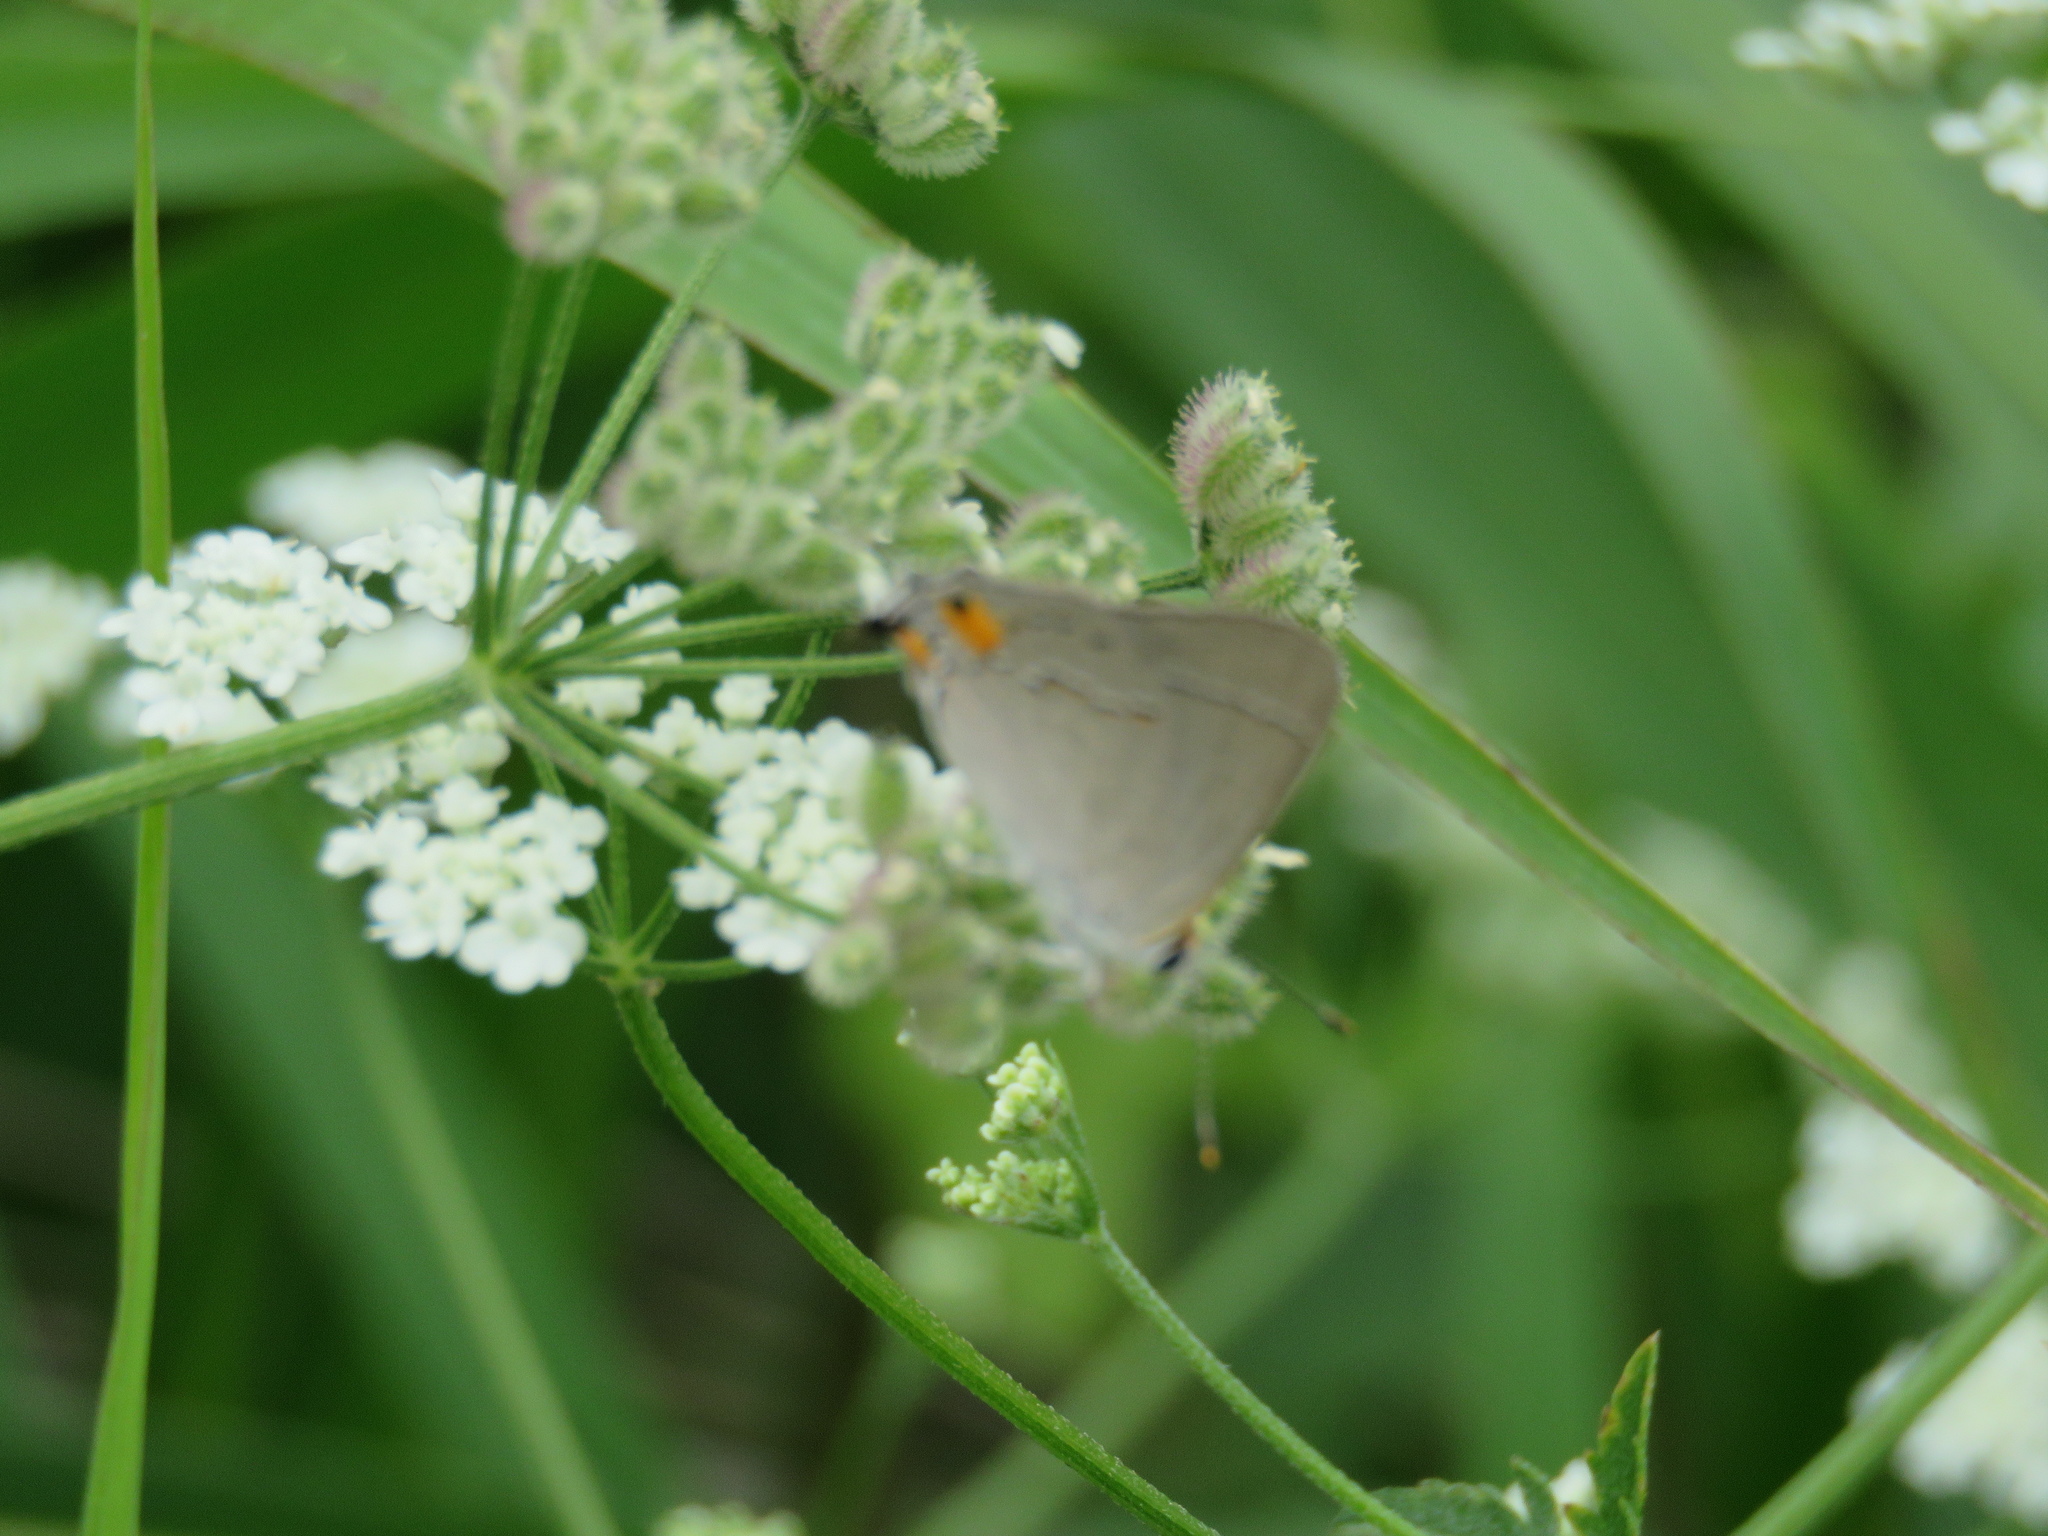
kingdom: Animalia
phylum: Arthropoda
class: Insecta
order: Lepidoptera
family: Lycaenidae
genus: Strymon
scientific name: Strymon melinus
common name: Gray hairstreak
